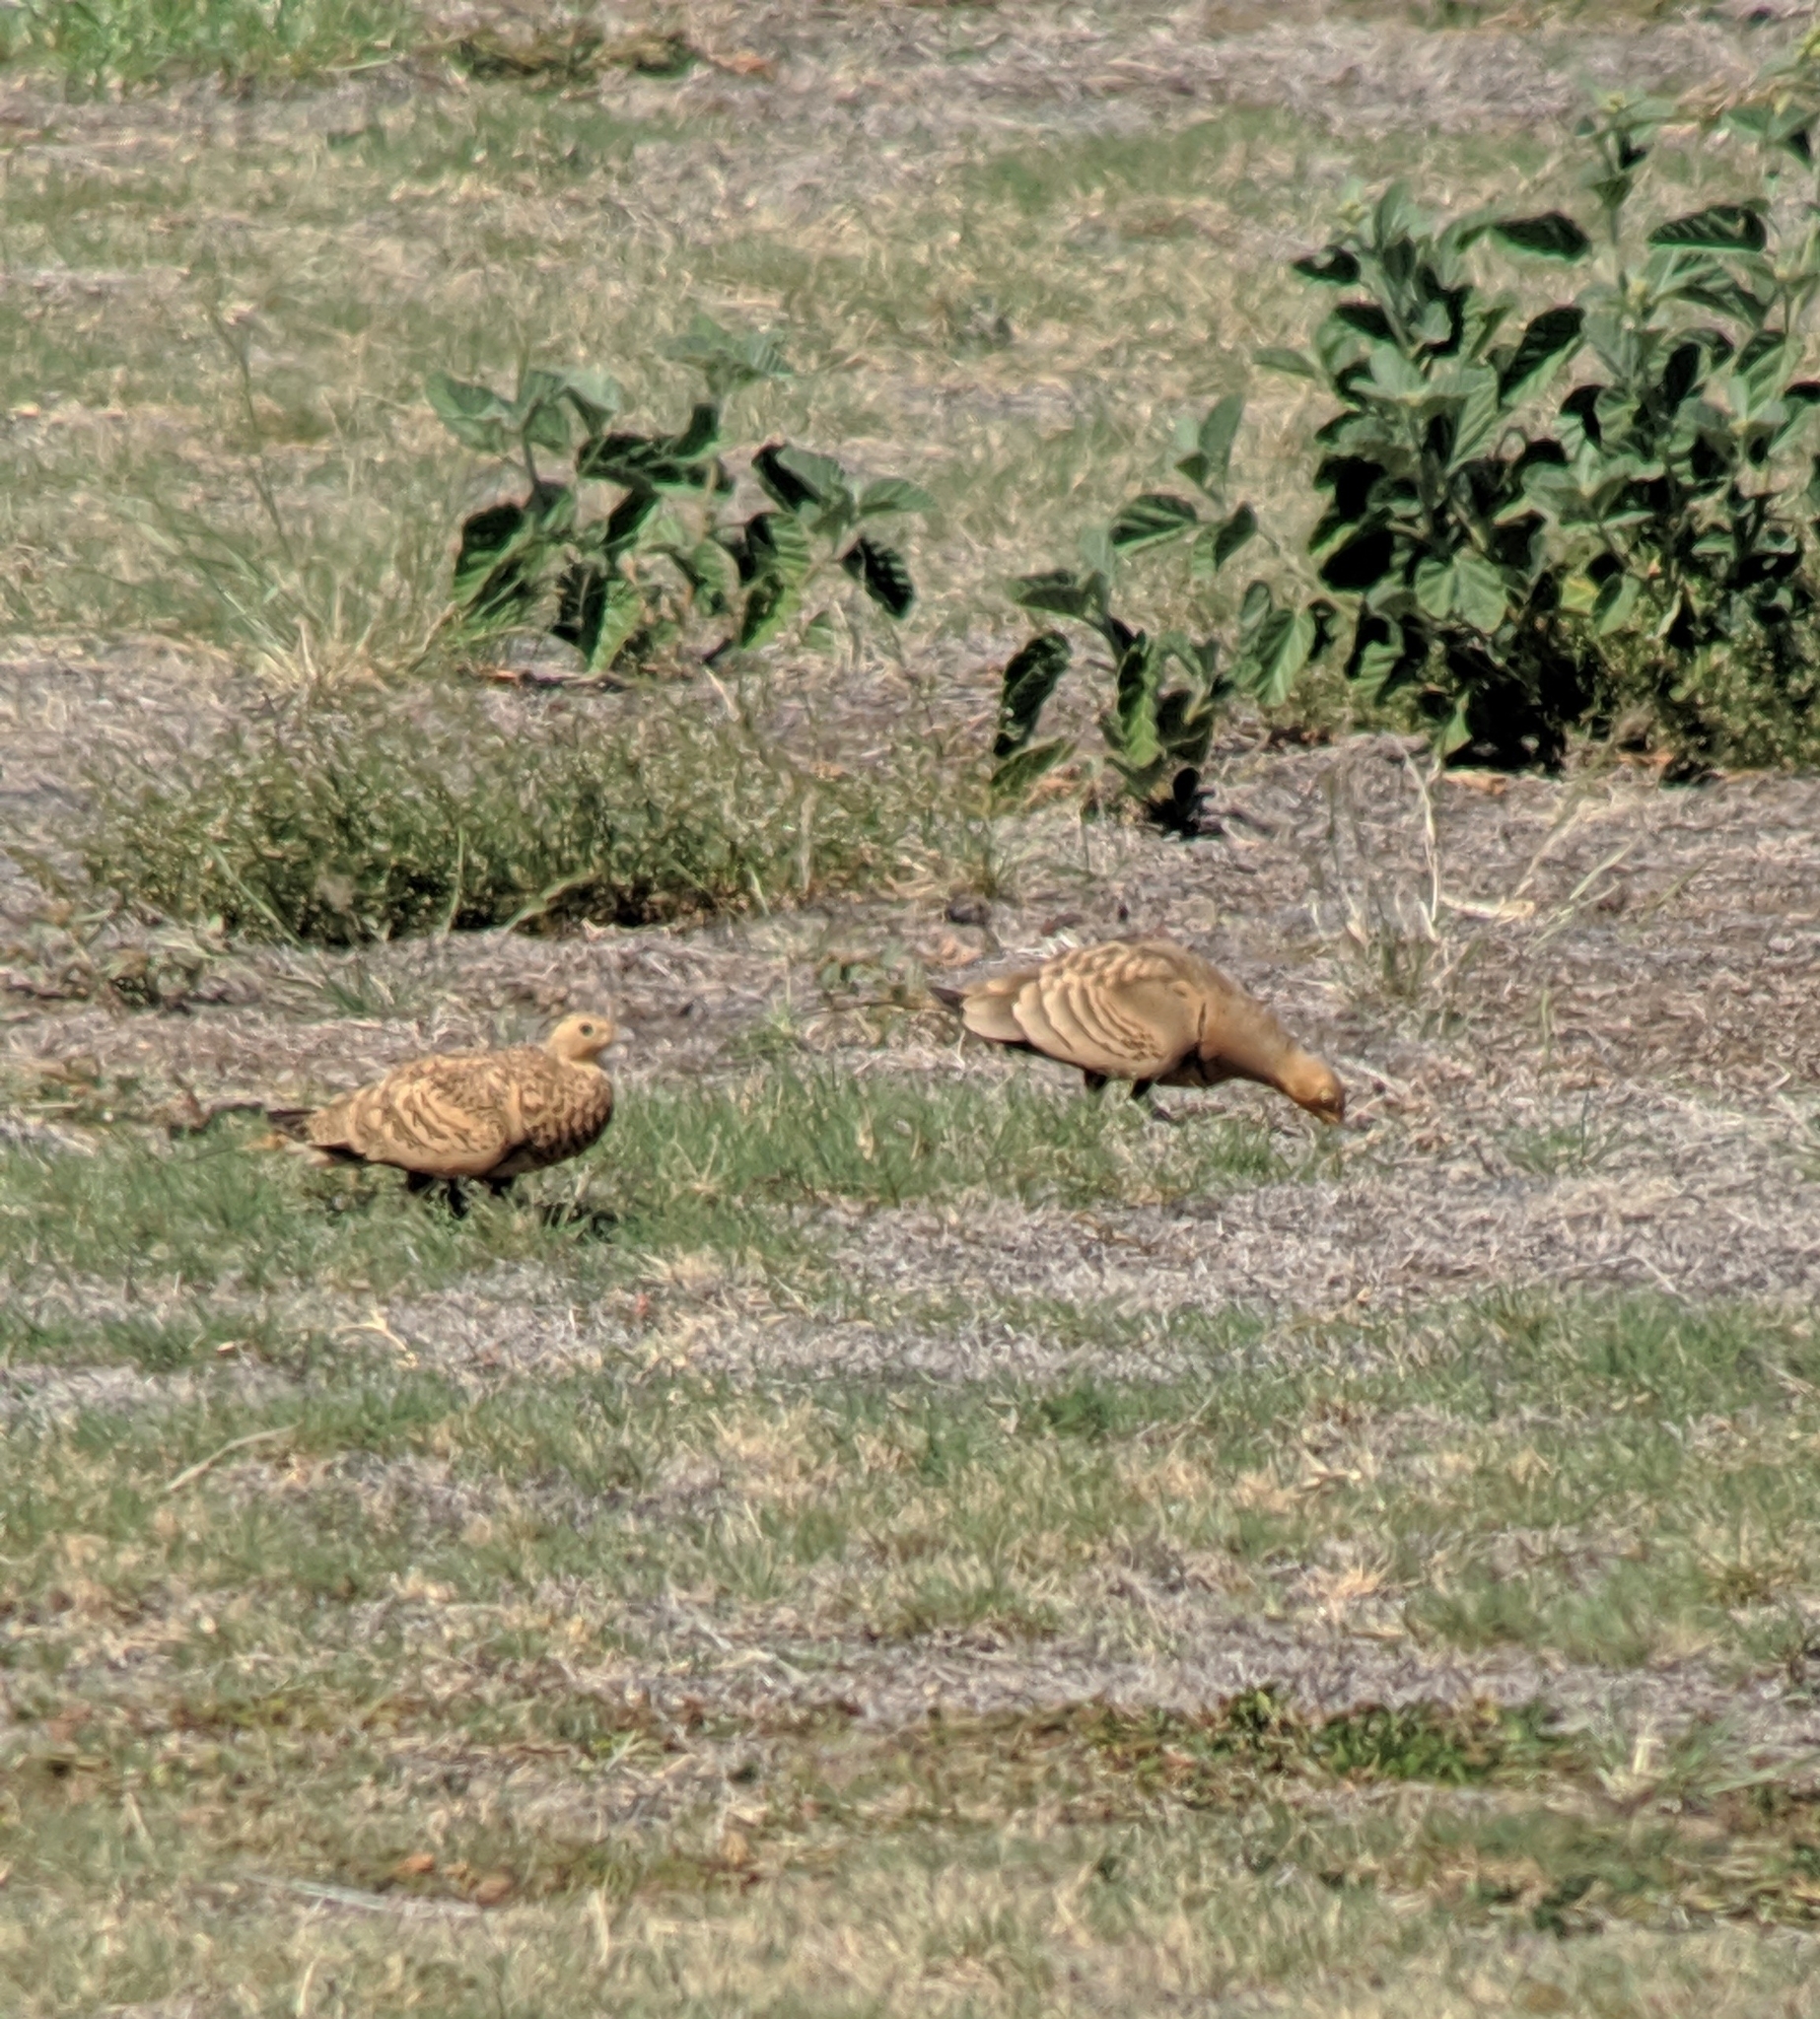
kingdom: Animalia
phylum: Chordata
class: Aves
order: Pteroclidiformes
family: Pteroclididae
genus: Pterocles
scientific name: Pterocles exustus
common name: Chestnut-bellied sandgrouse
